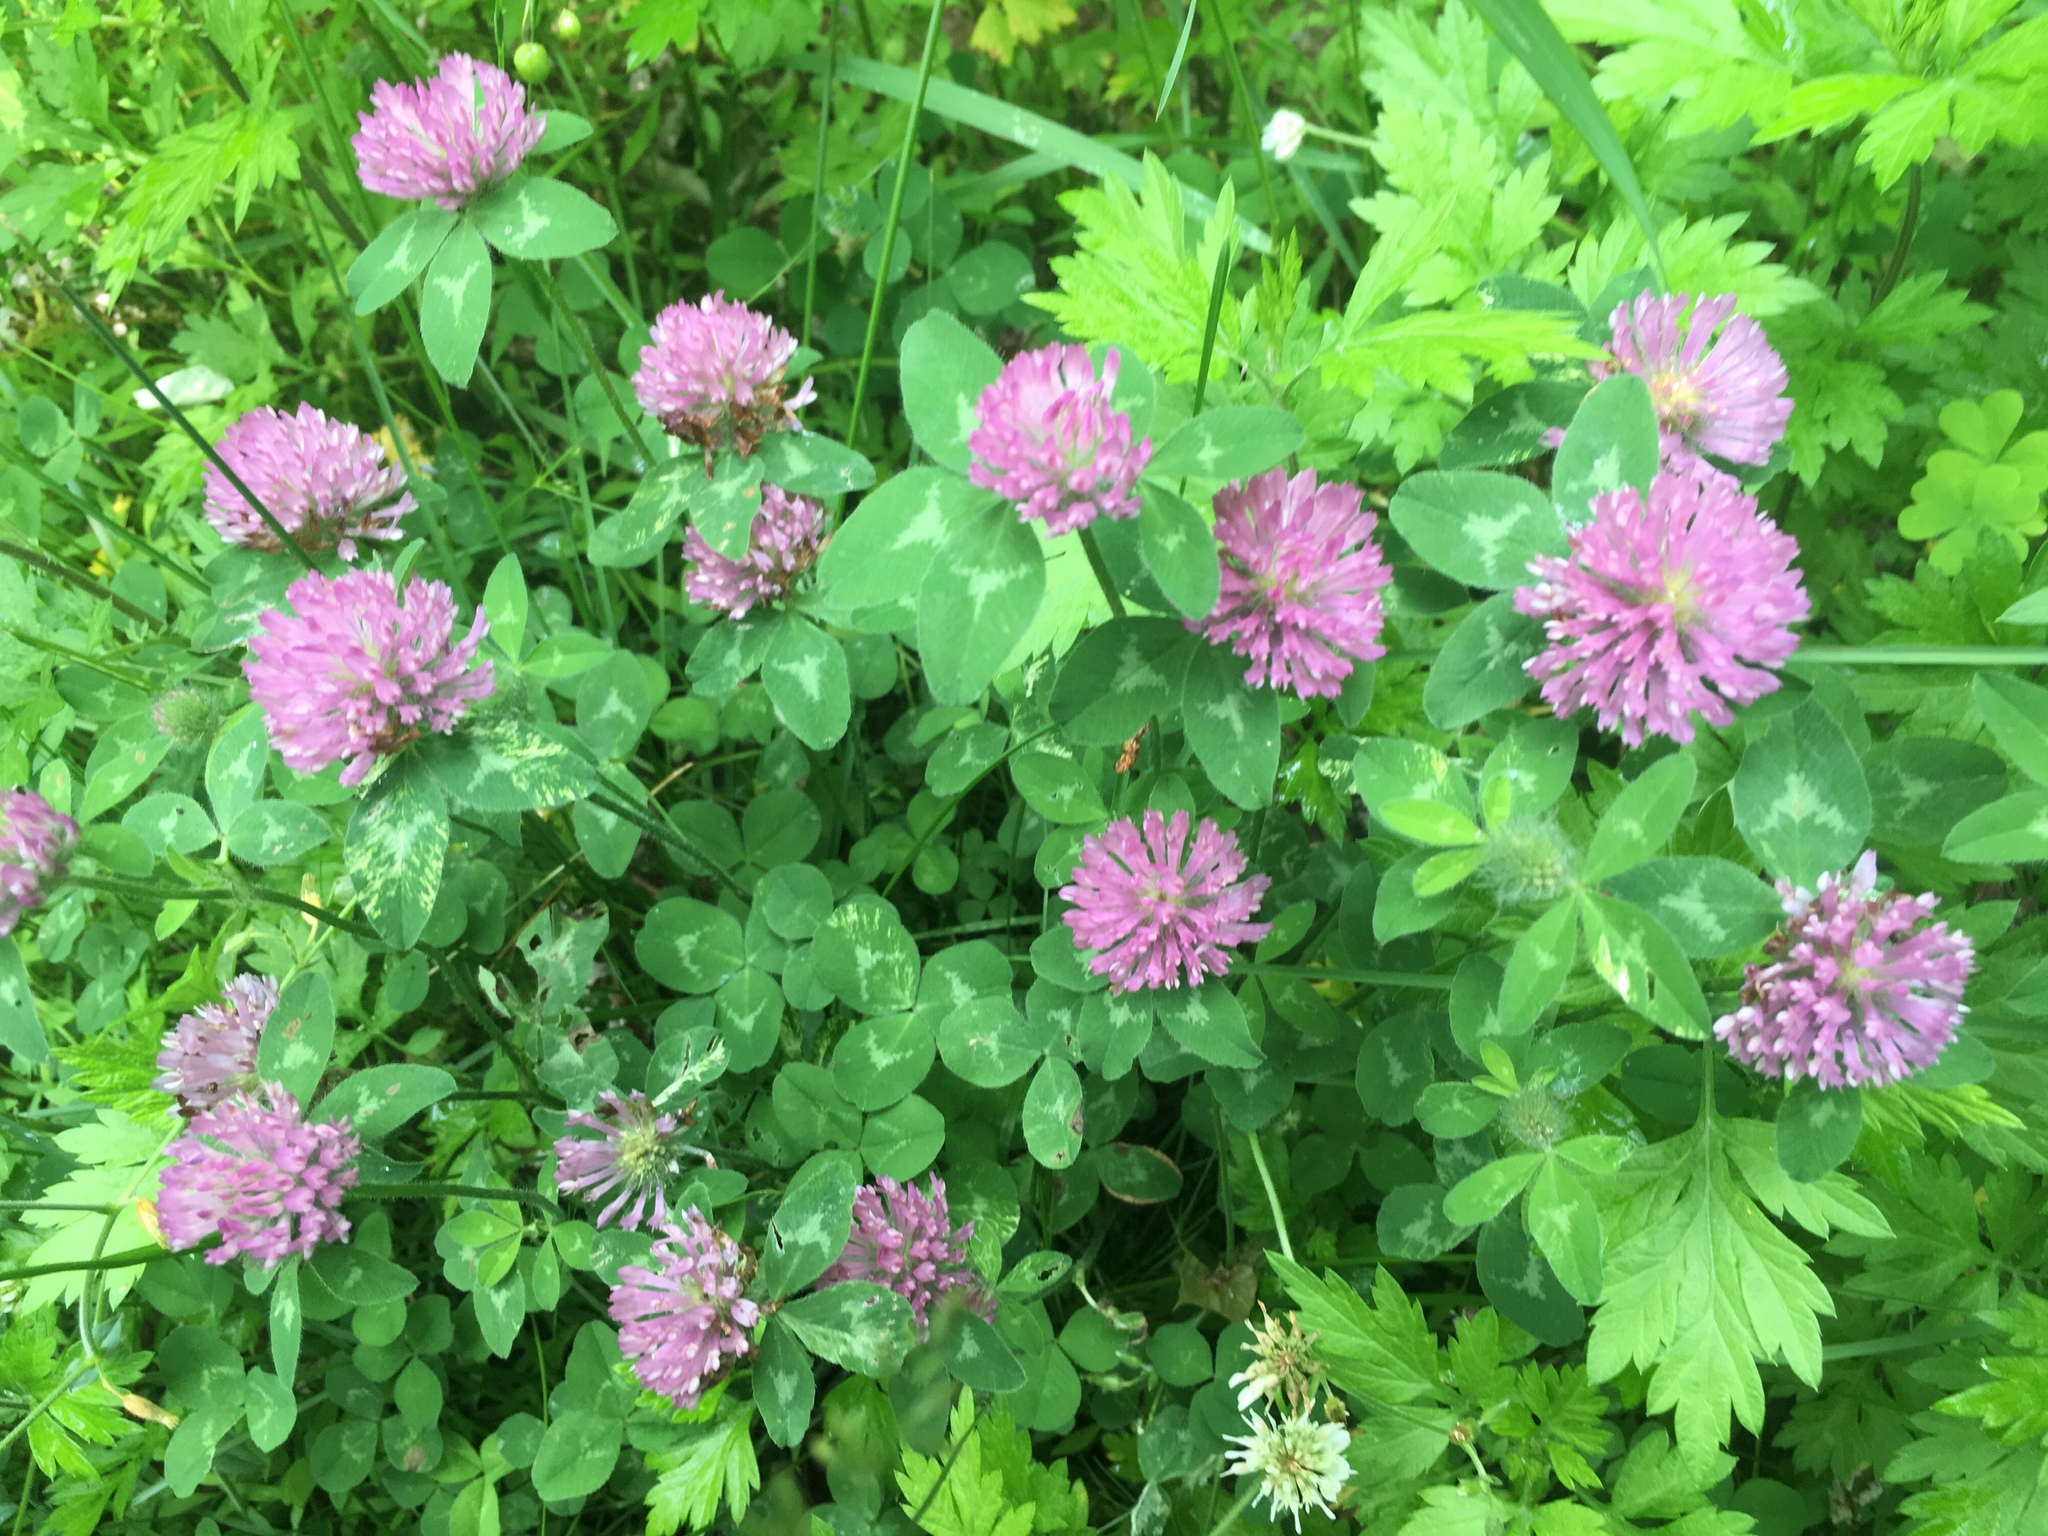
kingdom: Plantae
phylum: Tracheophyta
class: Magnoliopsida
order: Fabales
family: Fabaceae
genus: Trifolium
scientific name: Trifolium pratense
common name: Red clover
